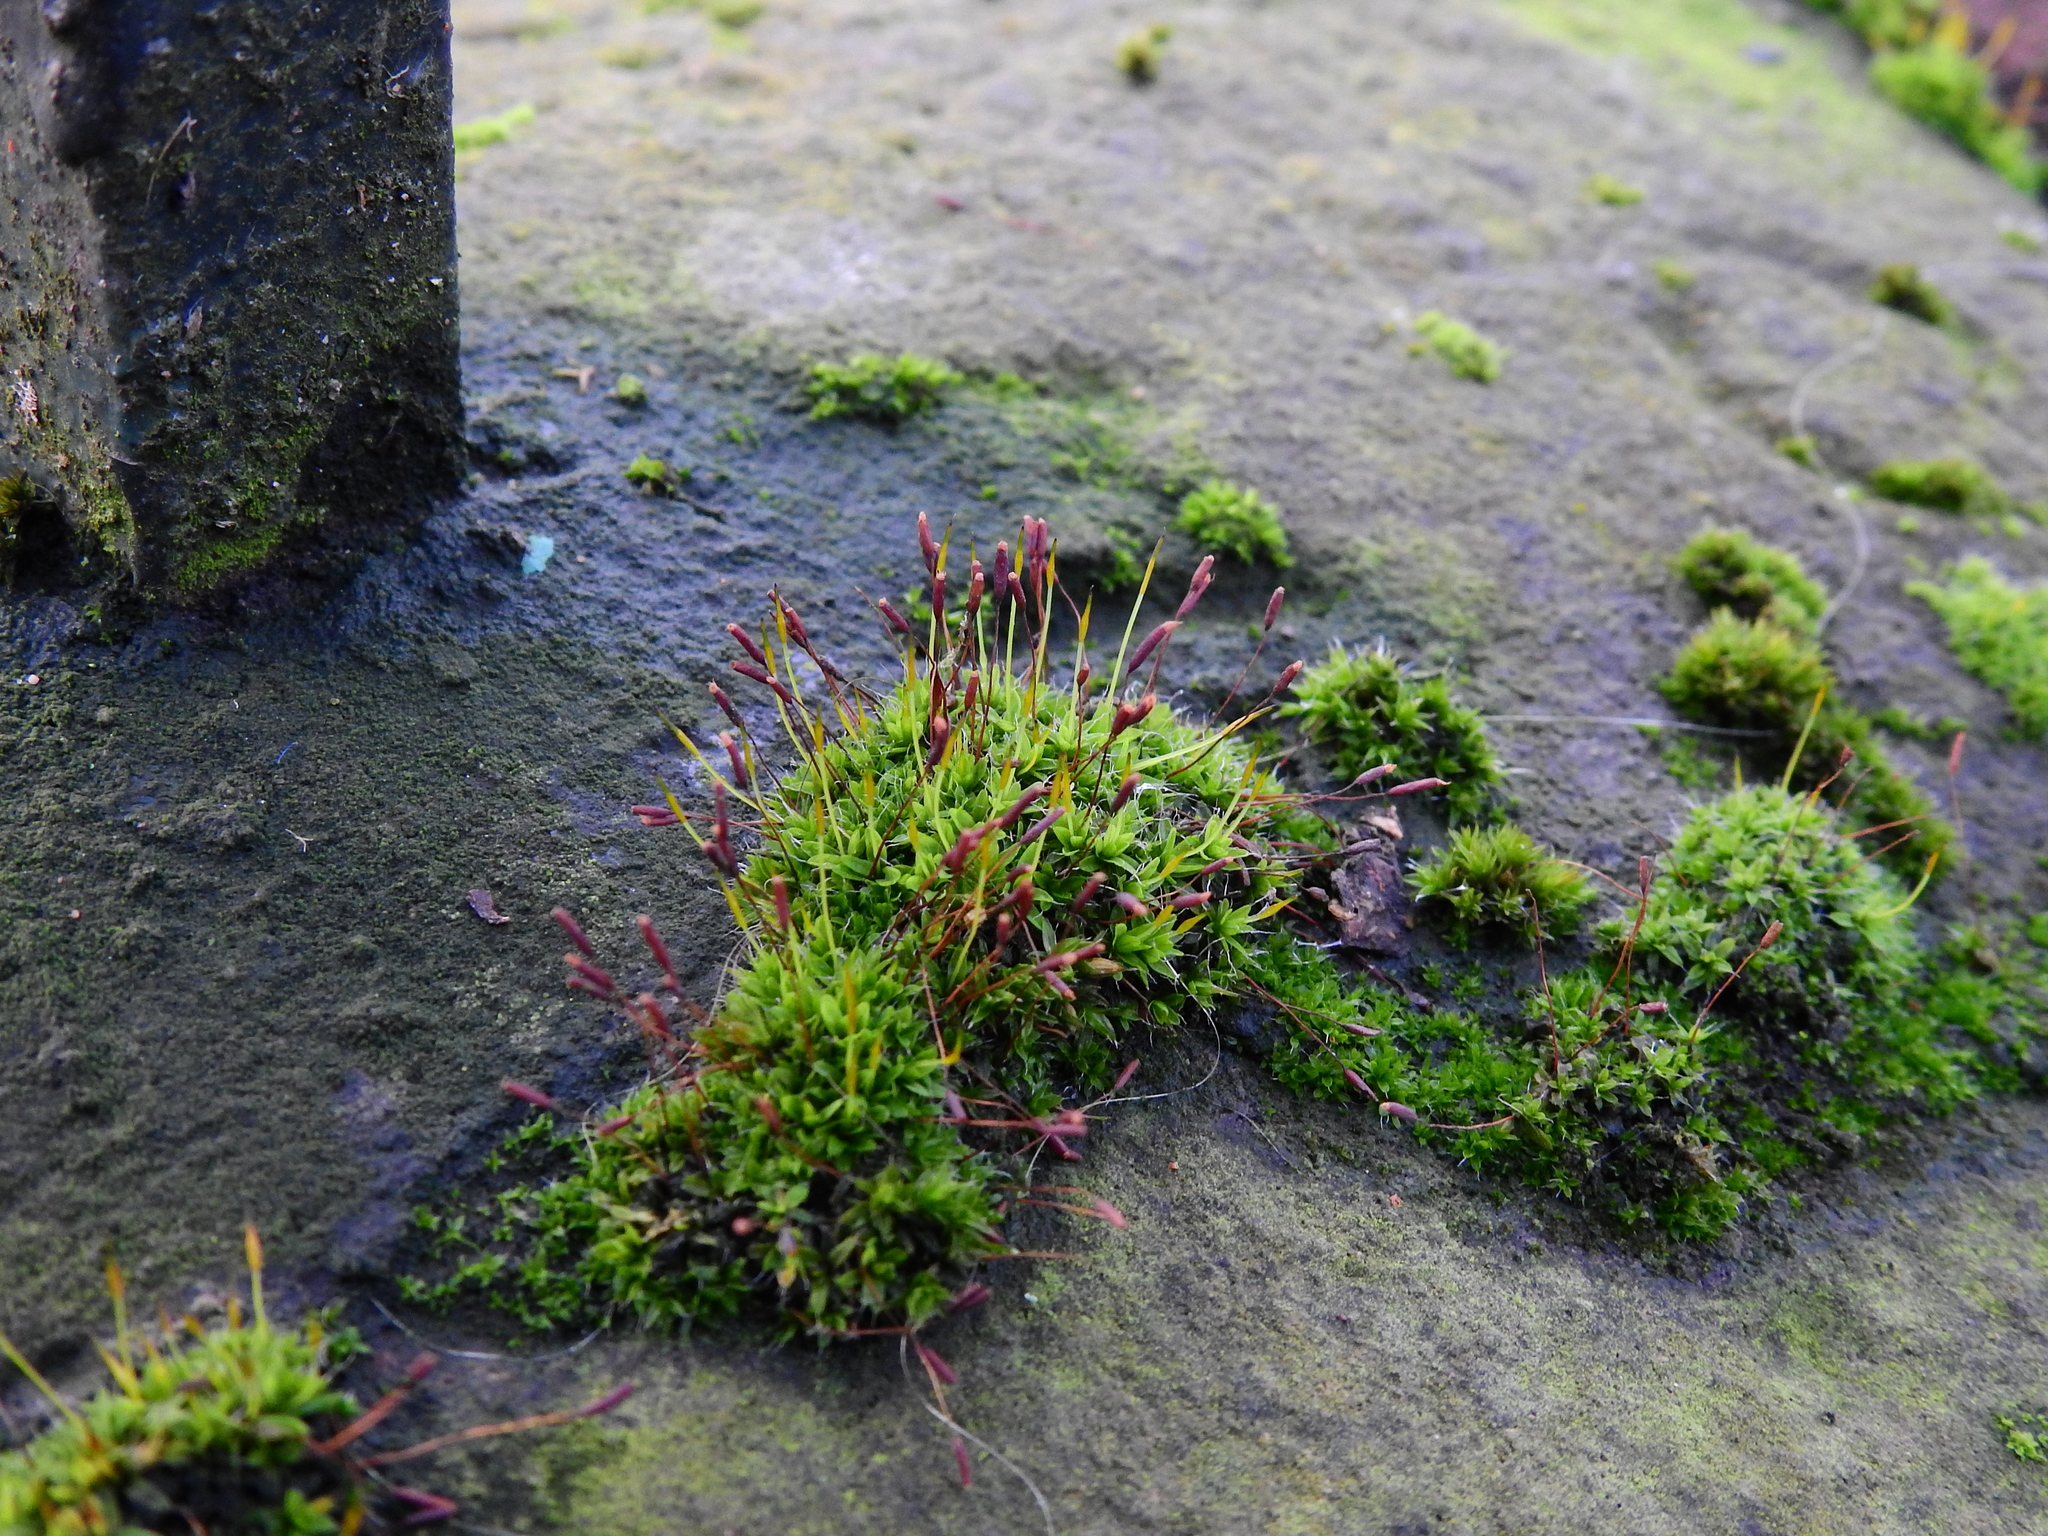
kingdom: Plantae
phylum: Bryophyta
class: Bryopsida
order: Pottiales
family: Pottiaceae
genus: Tortula
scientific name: Tortula muralis
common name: Wall screw-moss
